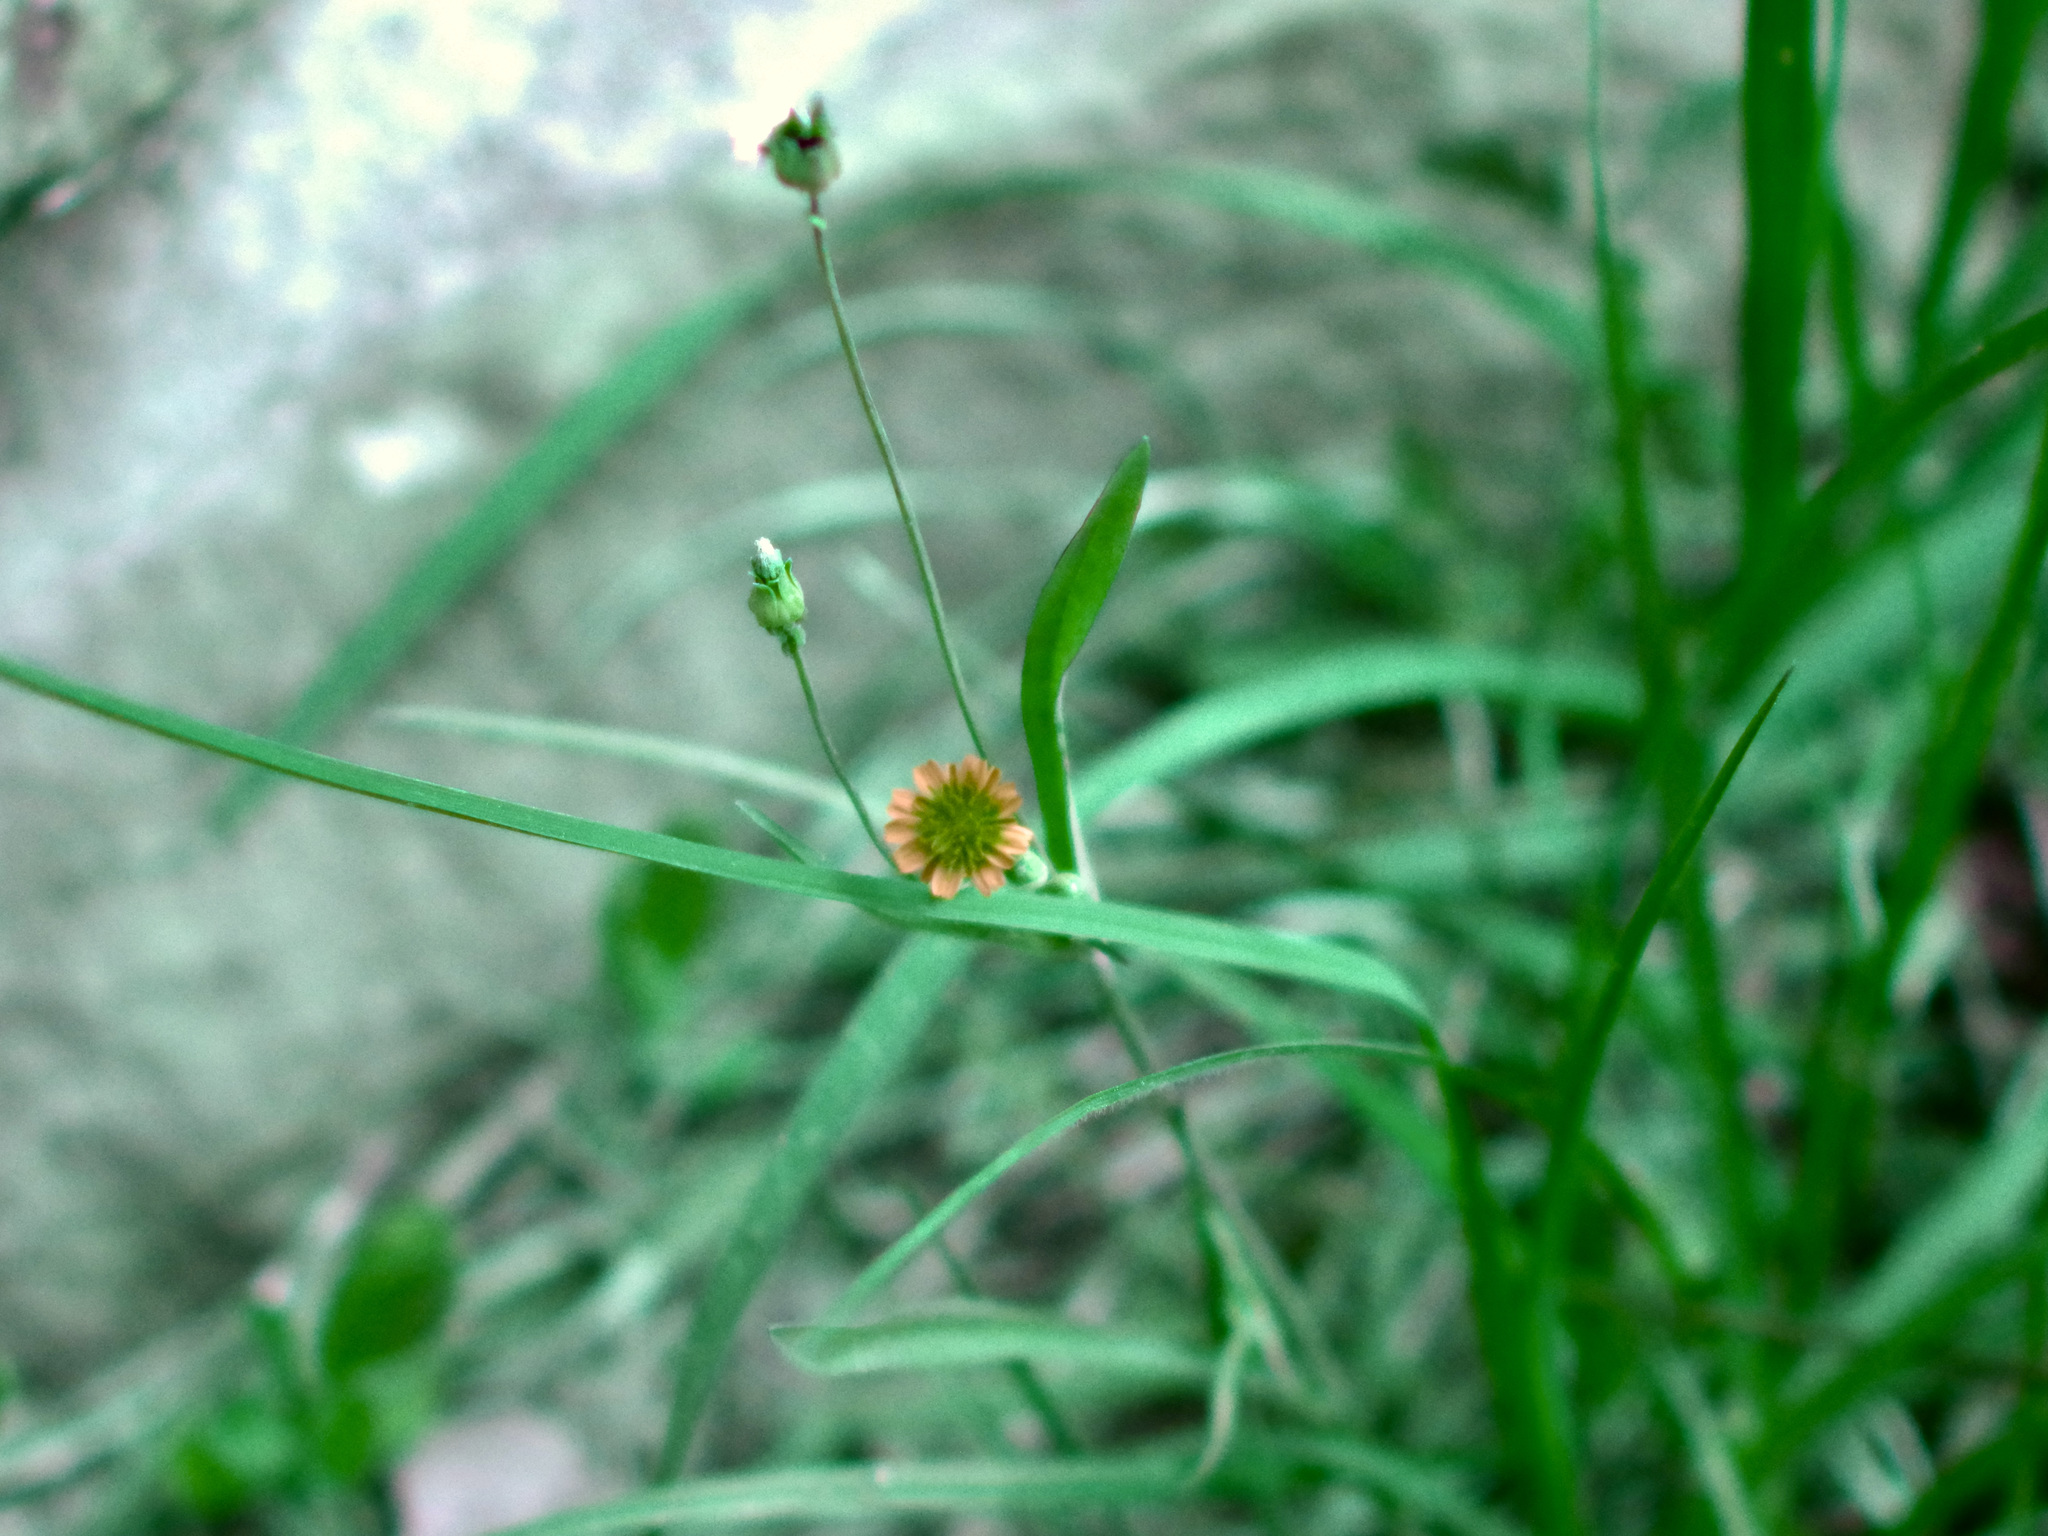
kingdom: Plantae
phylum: Tracheophyta
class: Magnoliopsida
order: Asterales
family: Asteraceae
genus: Krigia
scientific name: Krigia cespitosa
